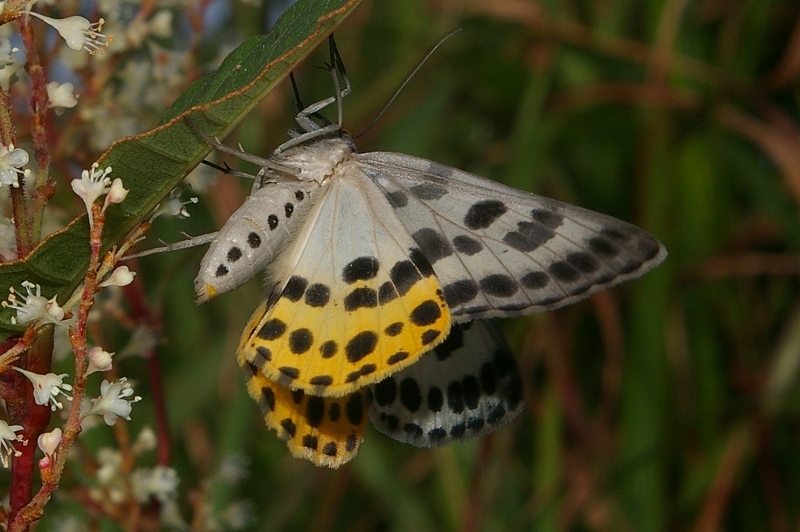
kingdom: Animalia
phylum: Arthropoda
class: Insecta
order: Lepidoptera
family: Geometridae
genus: Arichanna
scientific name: Arichanna
